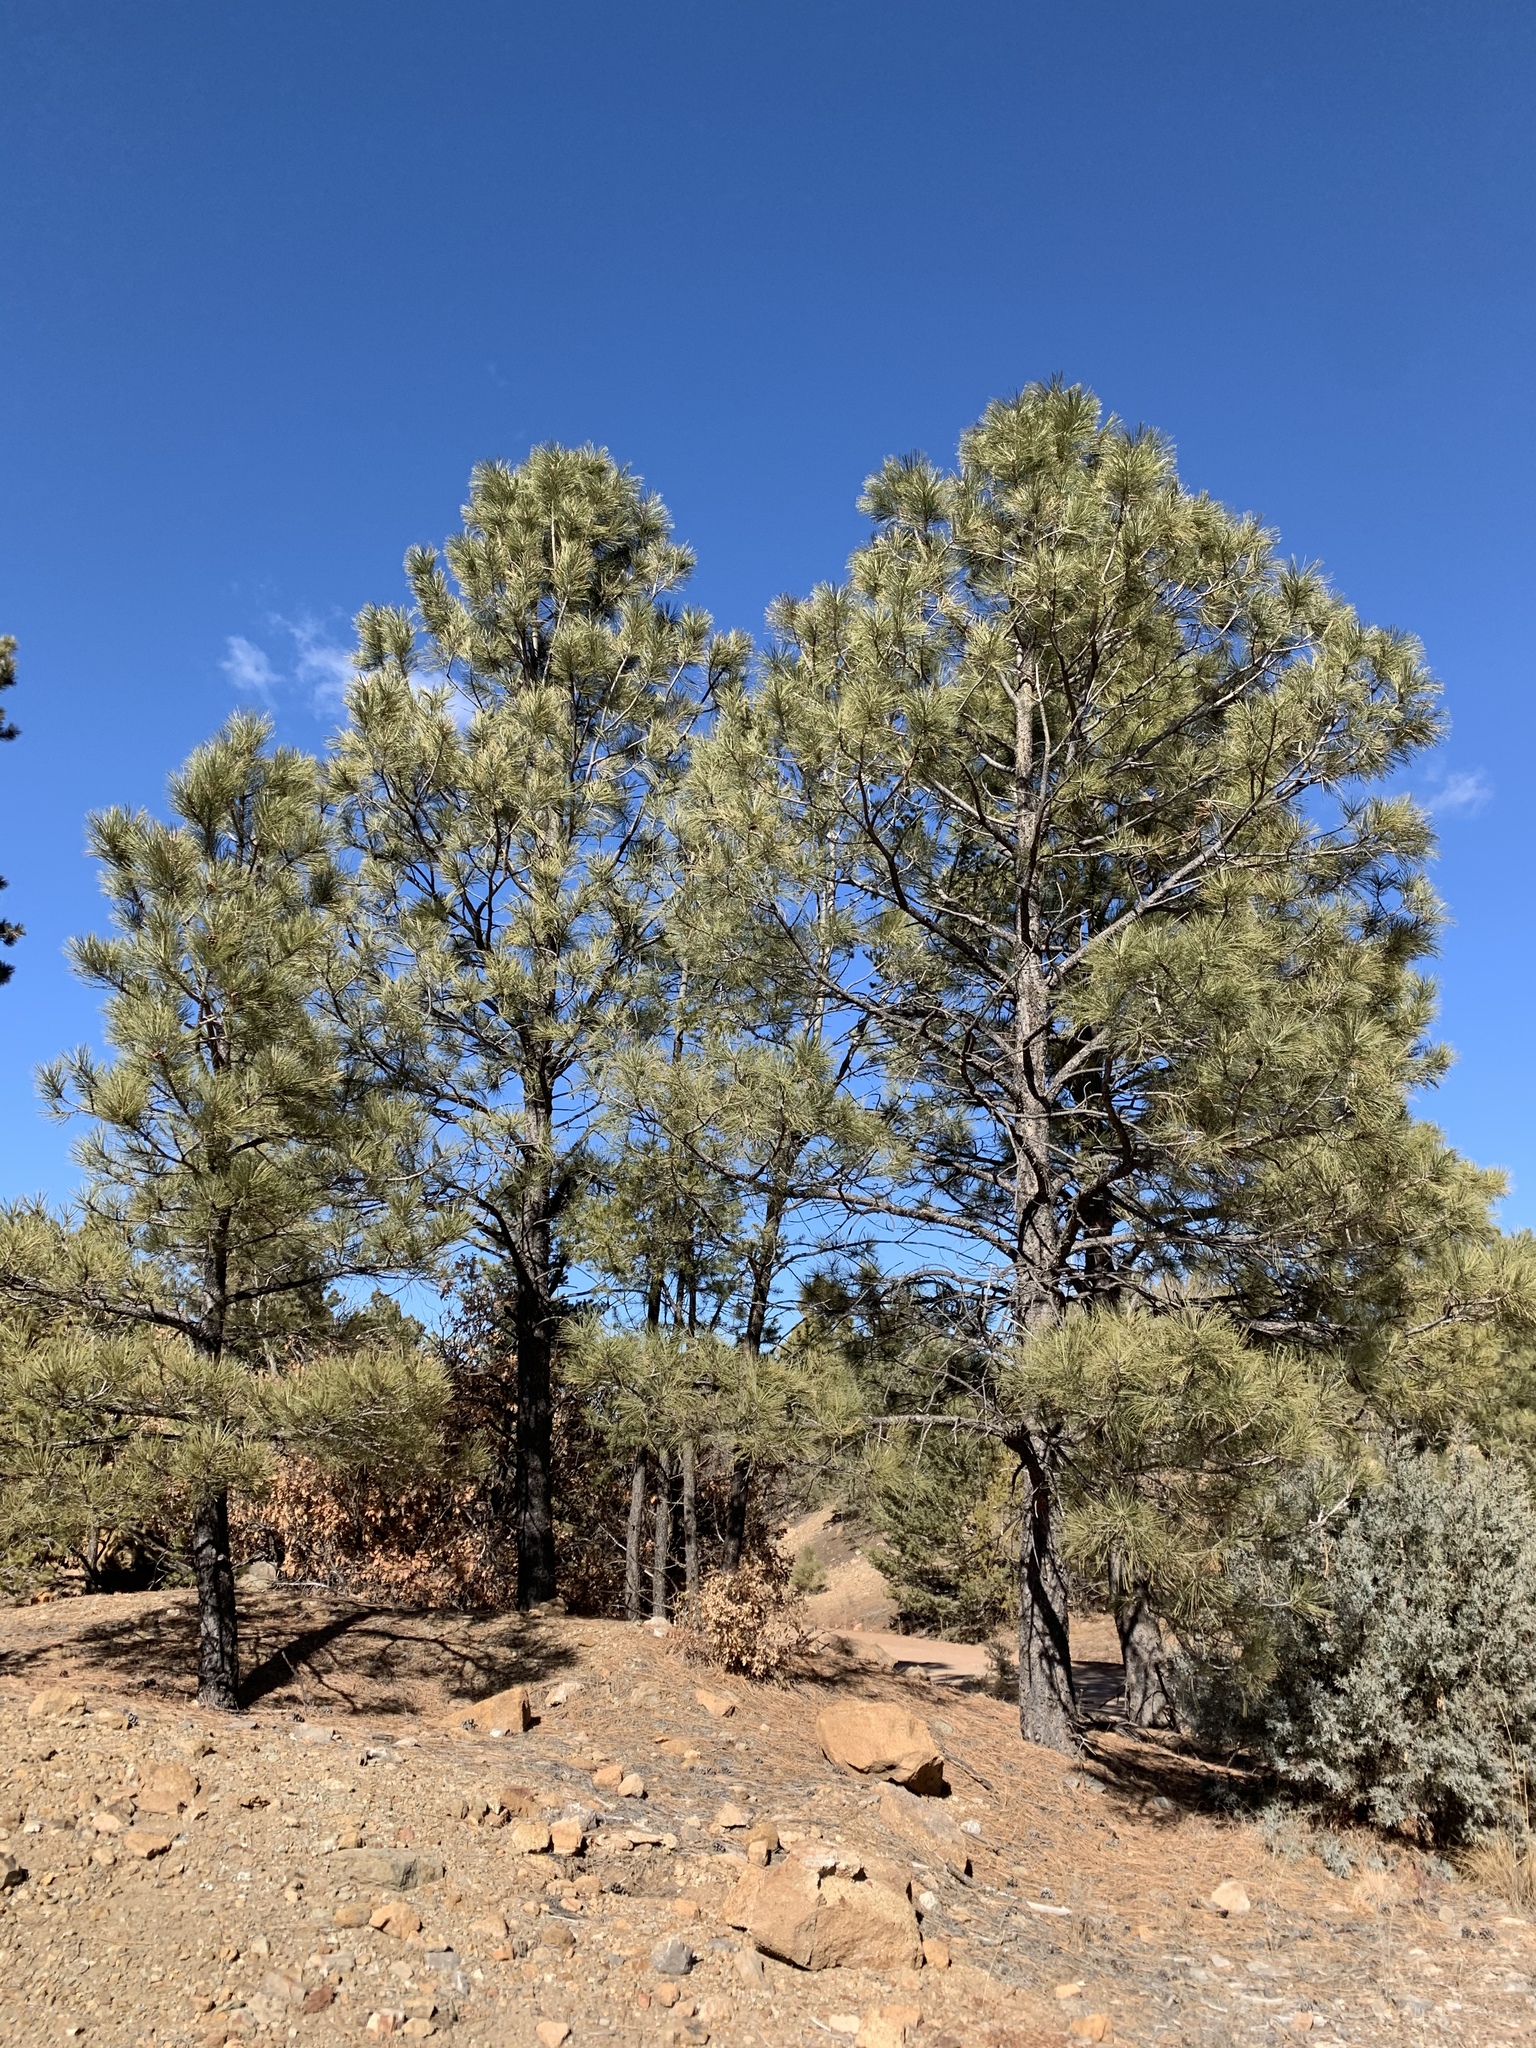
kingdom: Plantae
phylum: Tracheophyta
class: Pinopsida
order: Pinales
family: Pinaceae
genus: Pinus
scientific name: Pinus ponderosa
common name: Western yellow-pine
